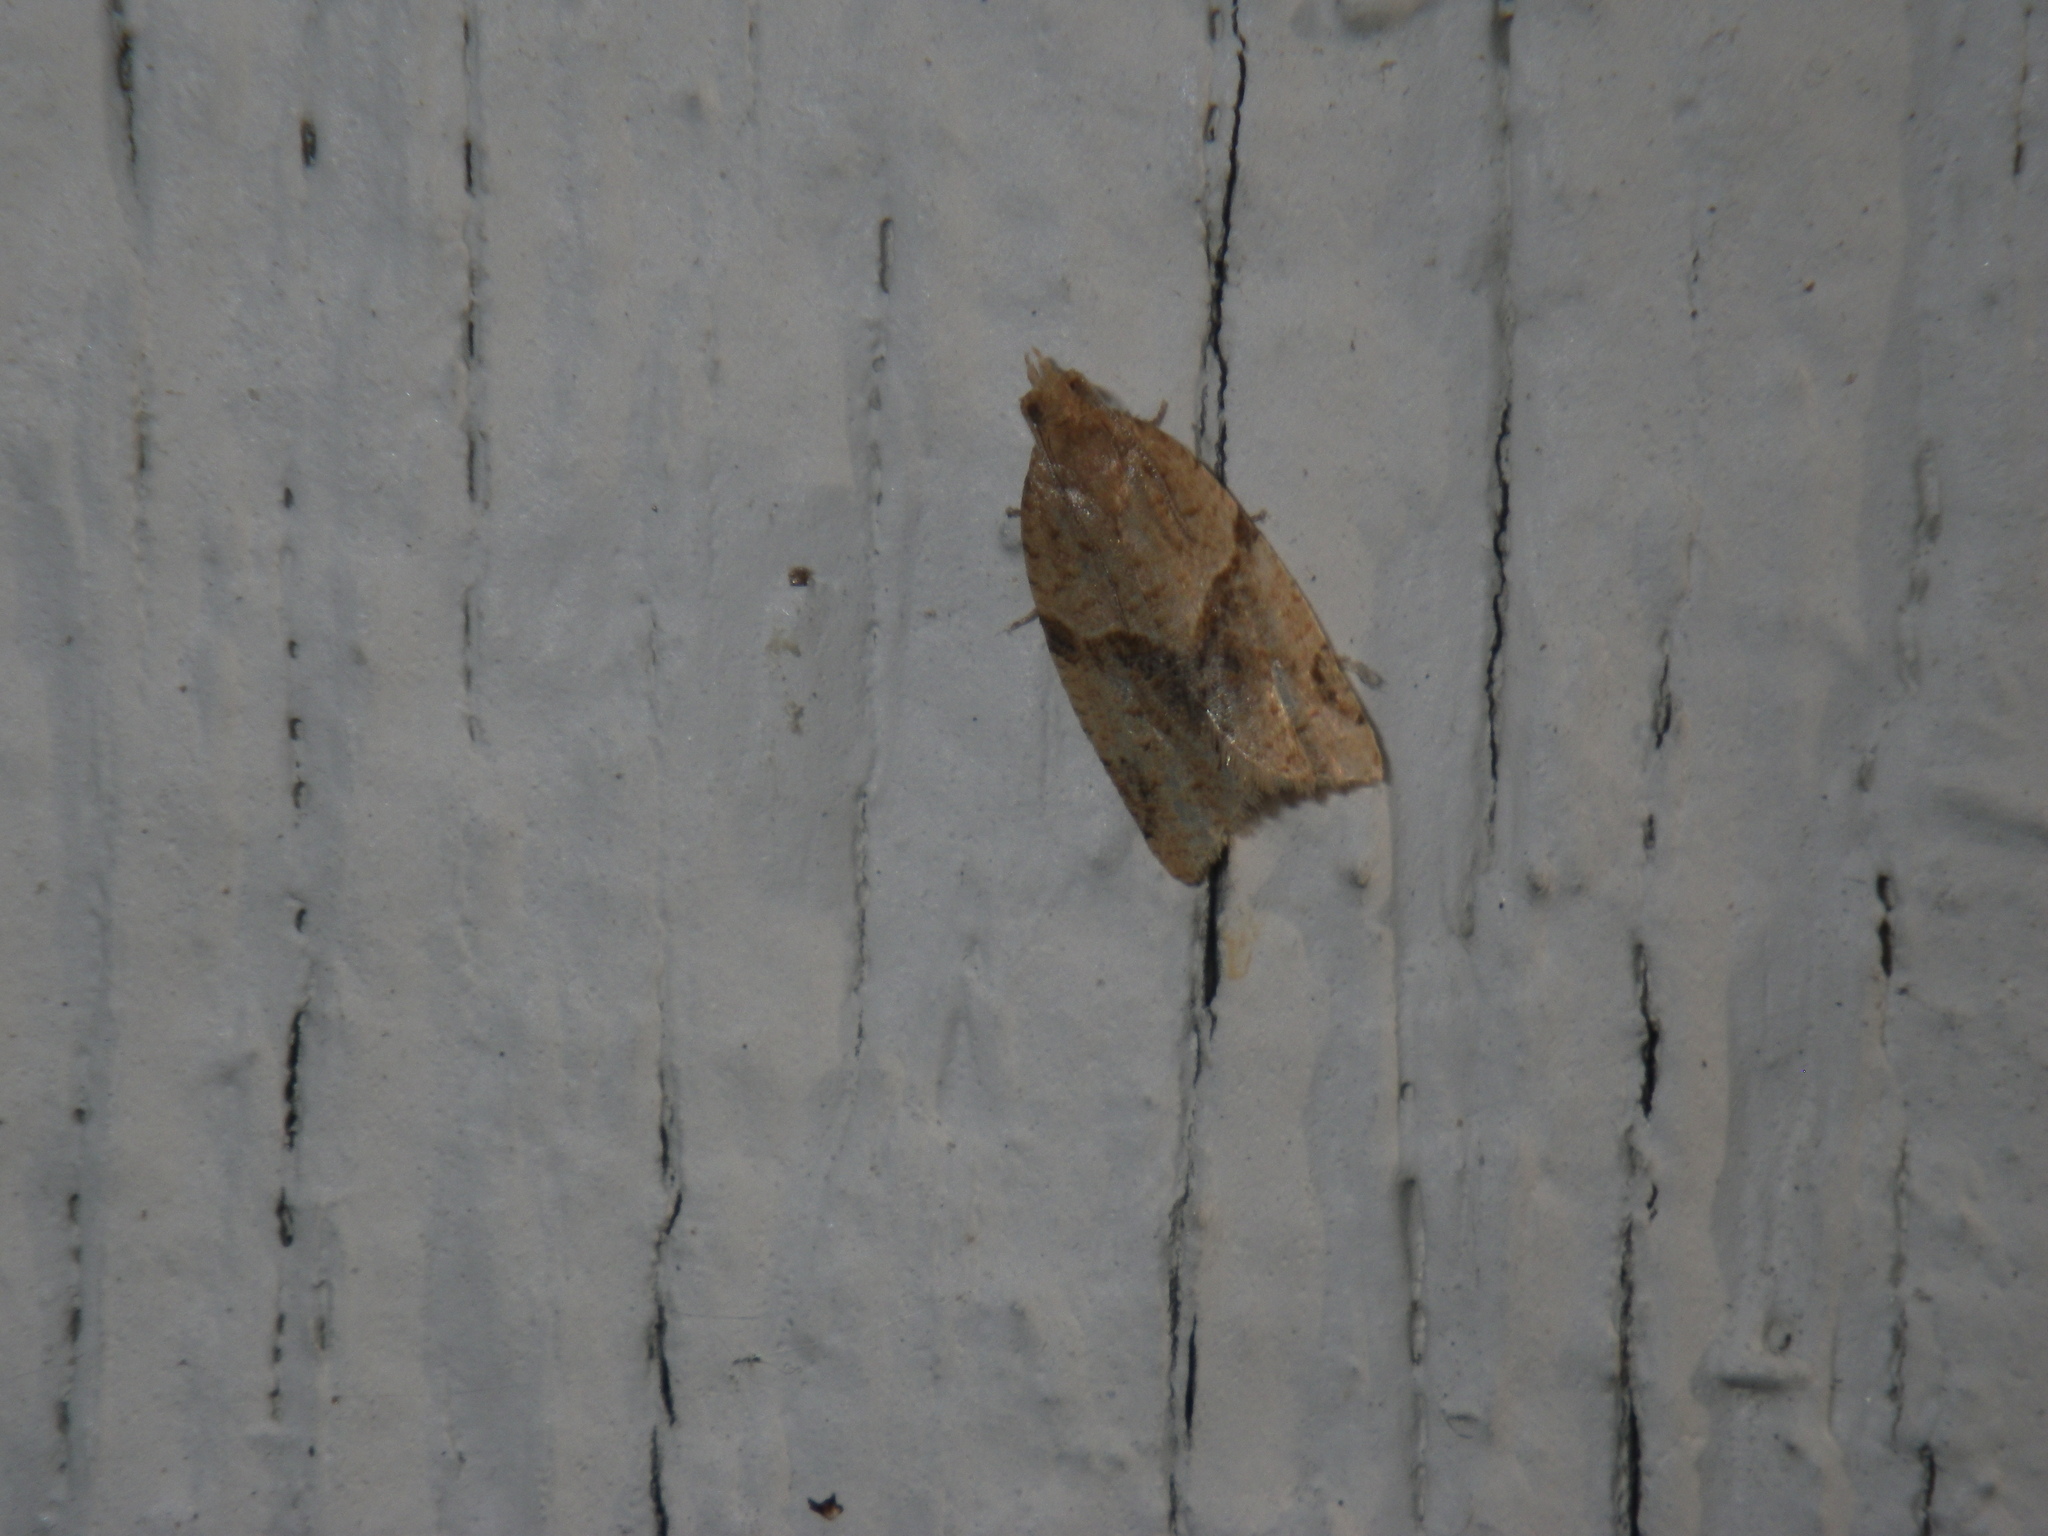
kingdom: Animalia
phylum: Arthropoda
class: Insecta
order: Lepidoptera
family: Tortricidae
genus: Clepsis
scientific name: Clepsis peritana
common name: Garden tortrix
